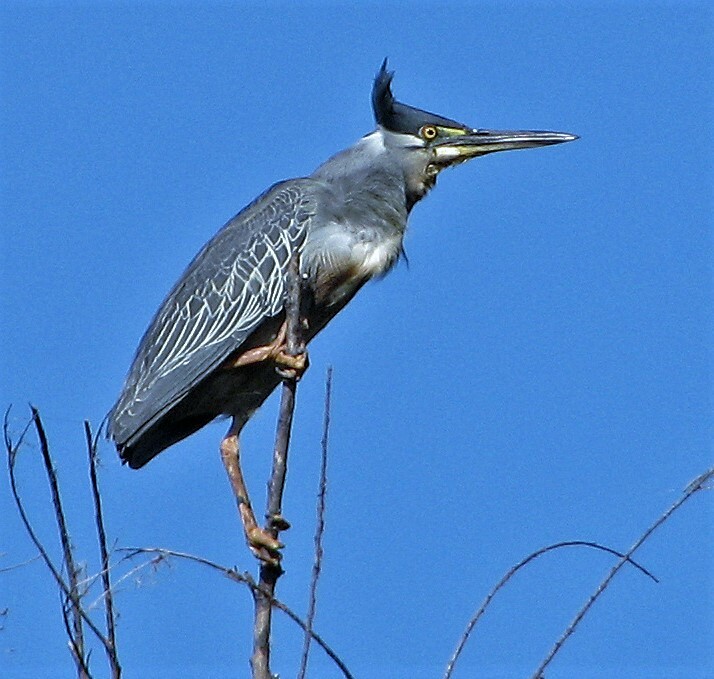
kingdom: Animalia
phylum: Chordata
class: Aves
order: Pelecaniformes
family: Ardeidae
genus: Butorides
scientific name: Butorides striata
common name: Striated heron
